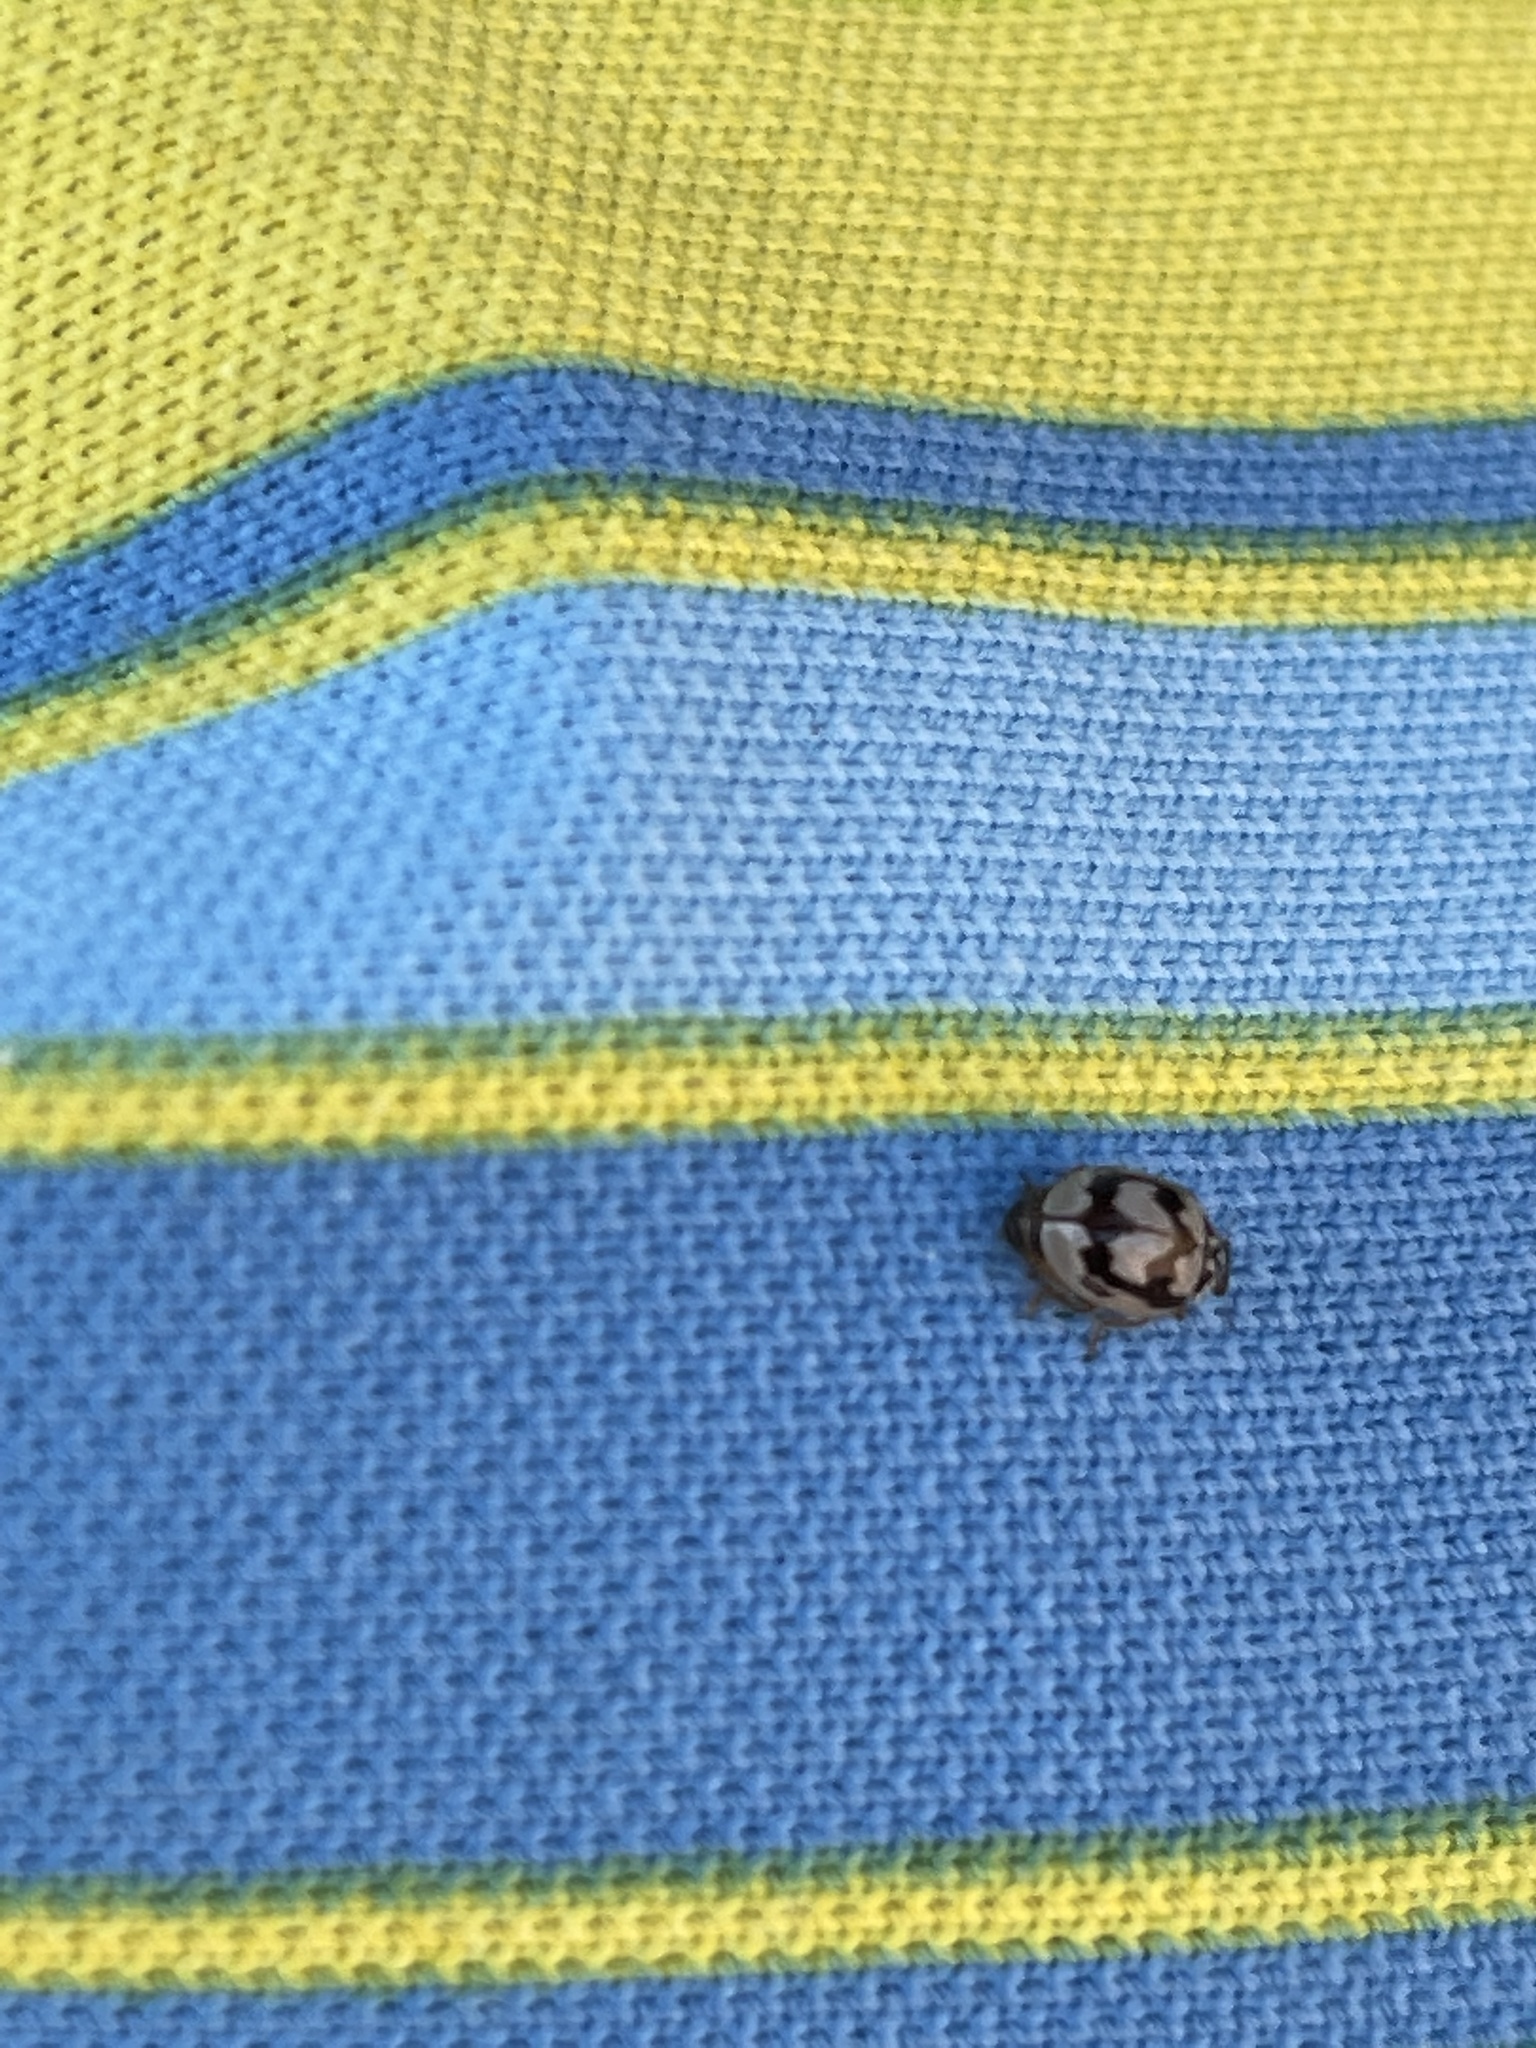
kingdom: Animalia
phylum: Arthropoda
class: Insecta
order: Coleoptera
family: Coccinellidae
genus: Mulsantina
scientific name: Mulsantina picta
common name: Painted ladybird
